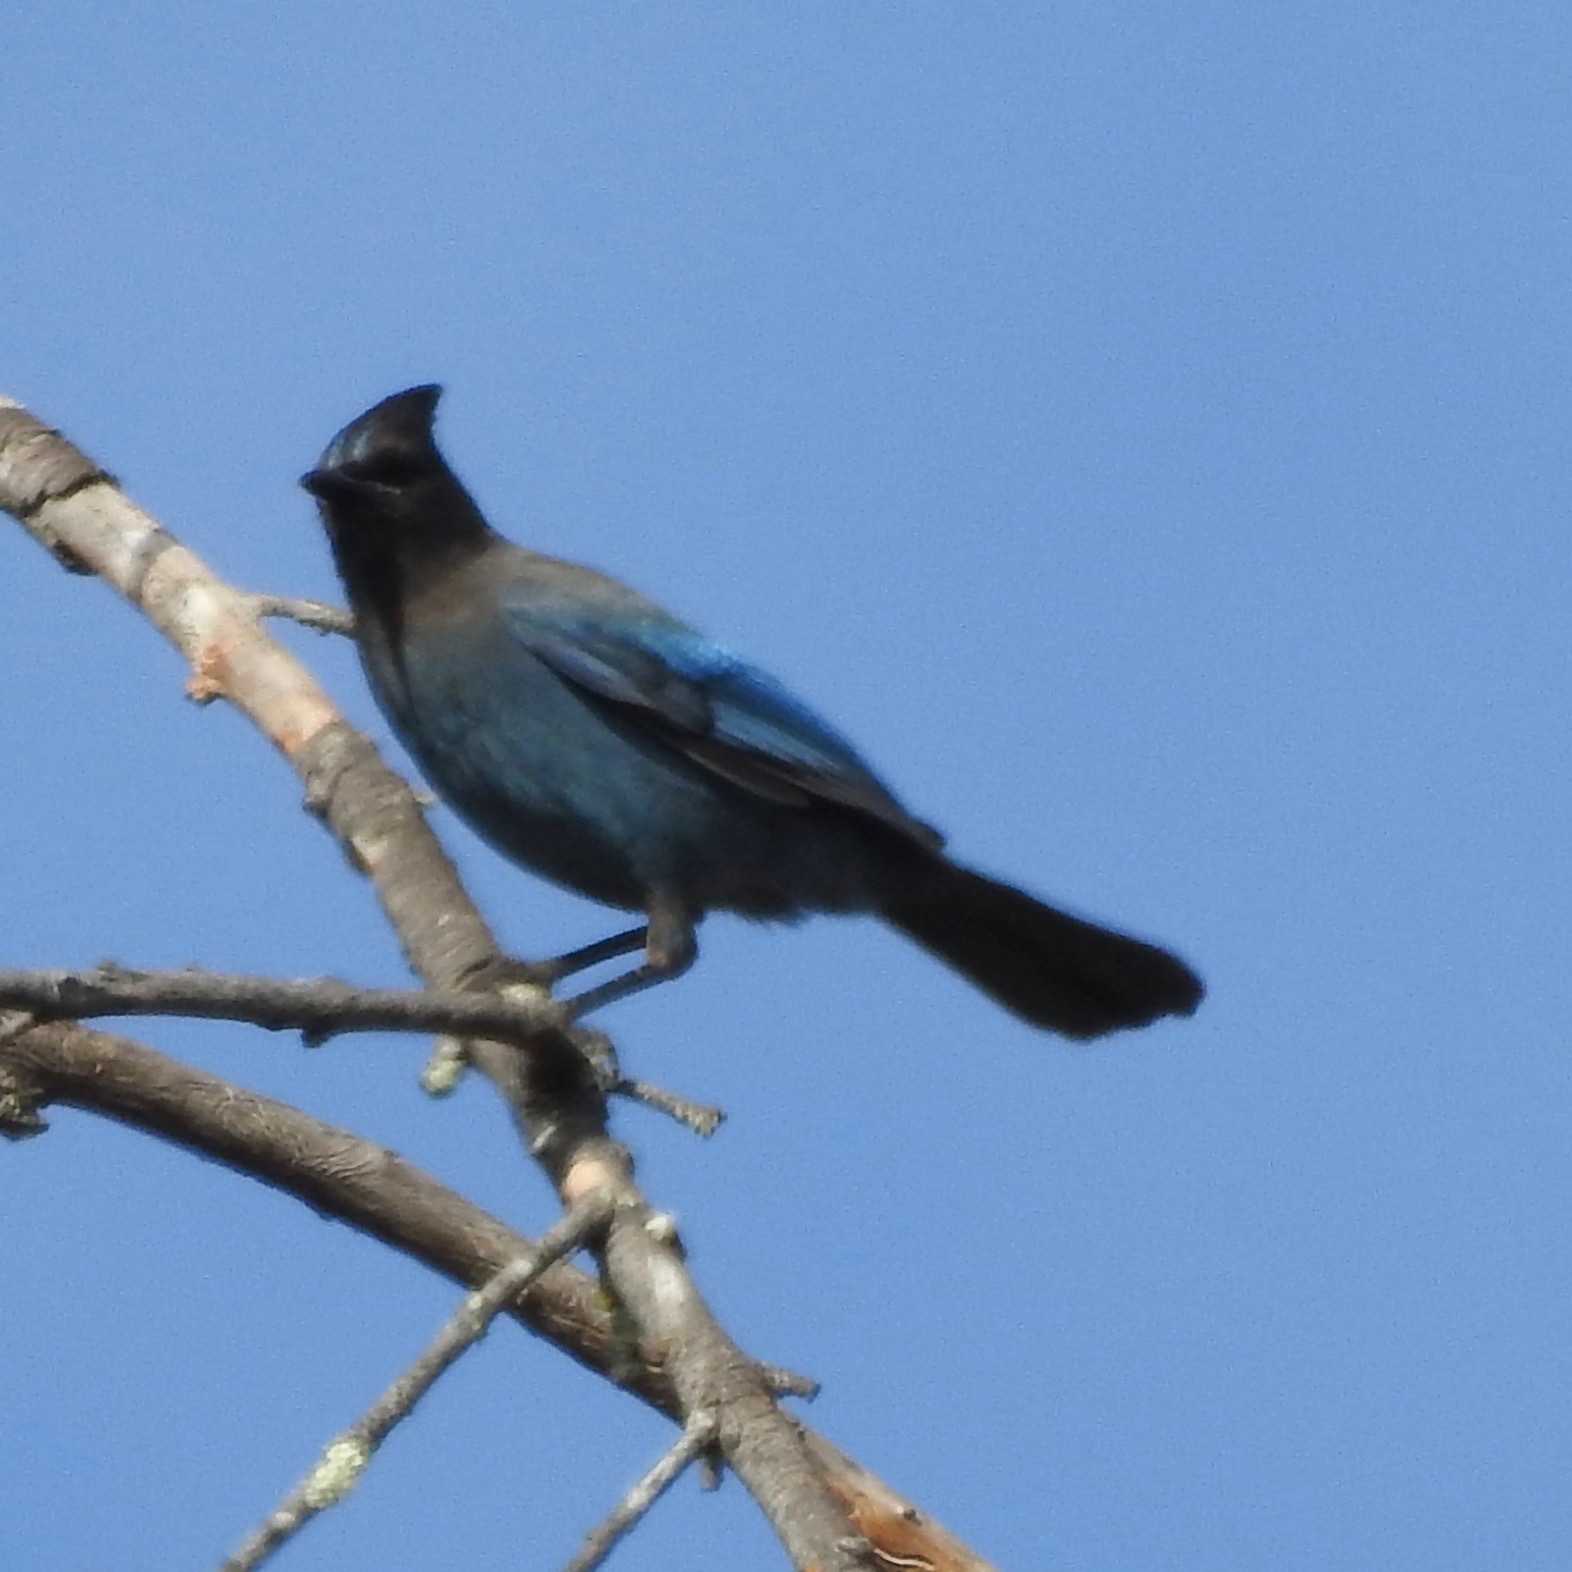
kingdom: Animalia
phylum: Chordata
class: Aves
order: Passeriformes
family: Corvidae
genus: Cyanocitta
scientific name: Cyanocitta stelleri
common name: Steller's jay
